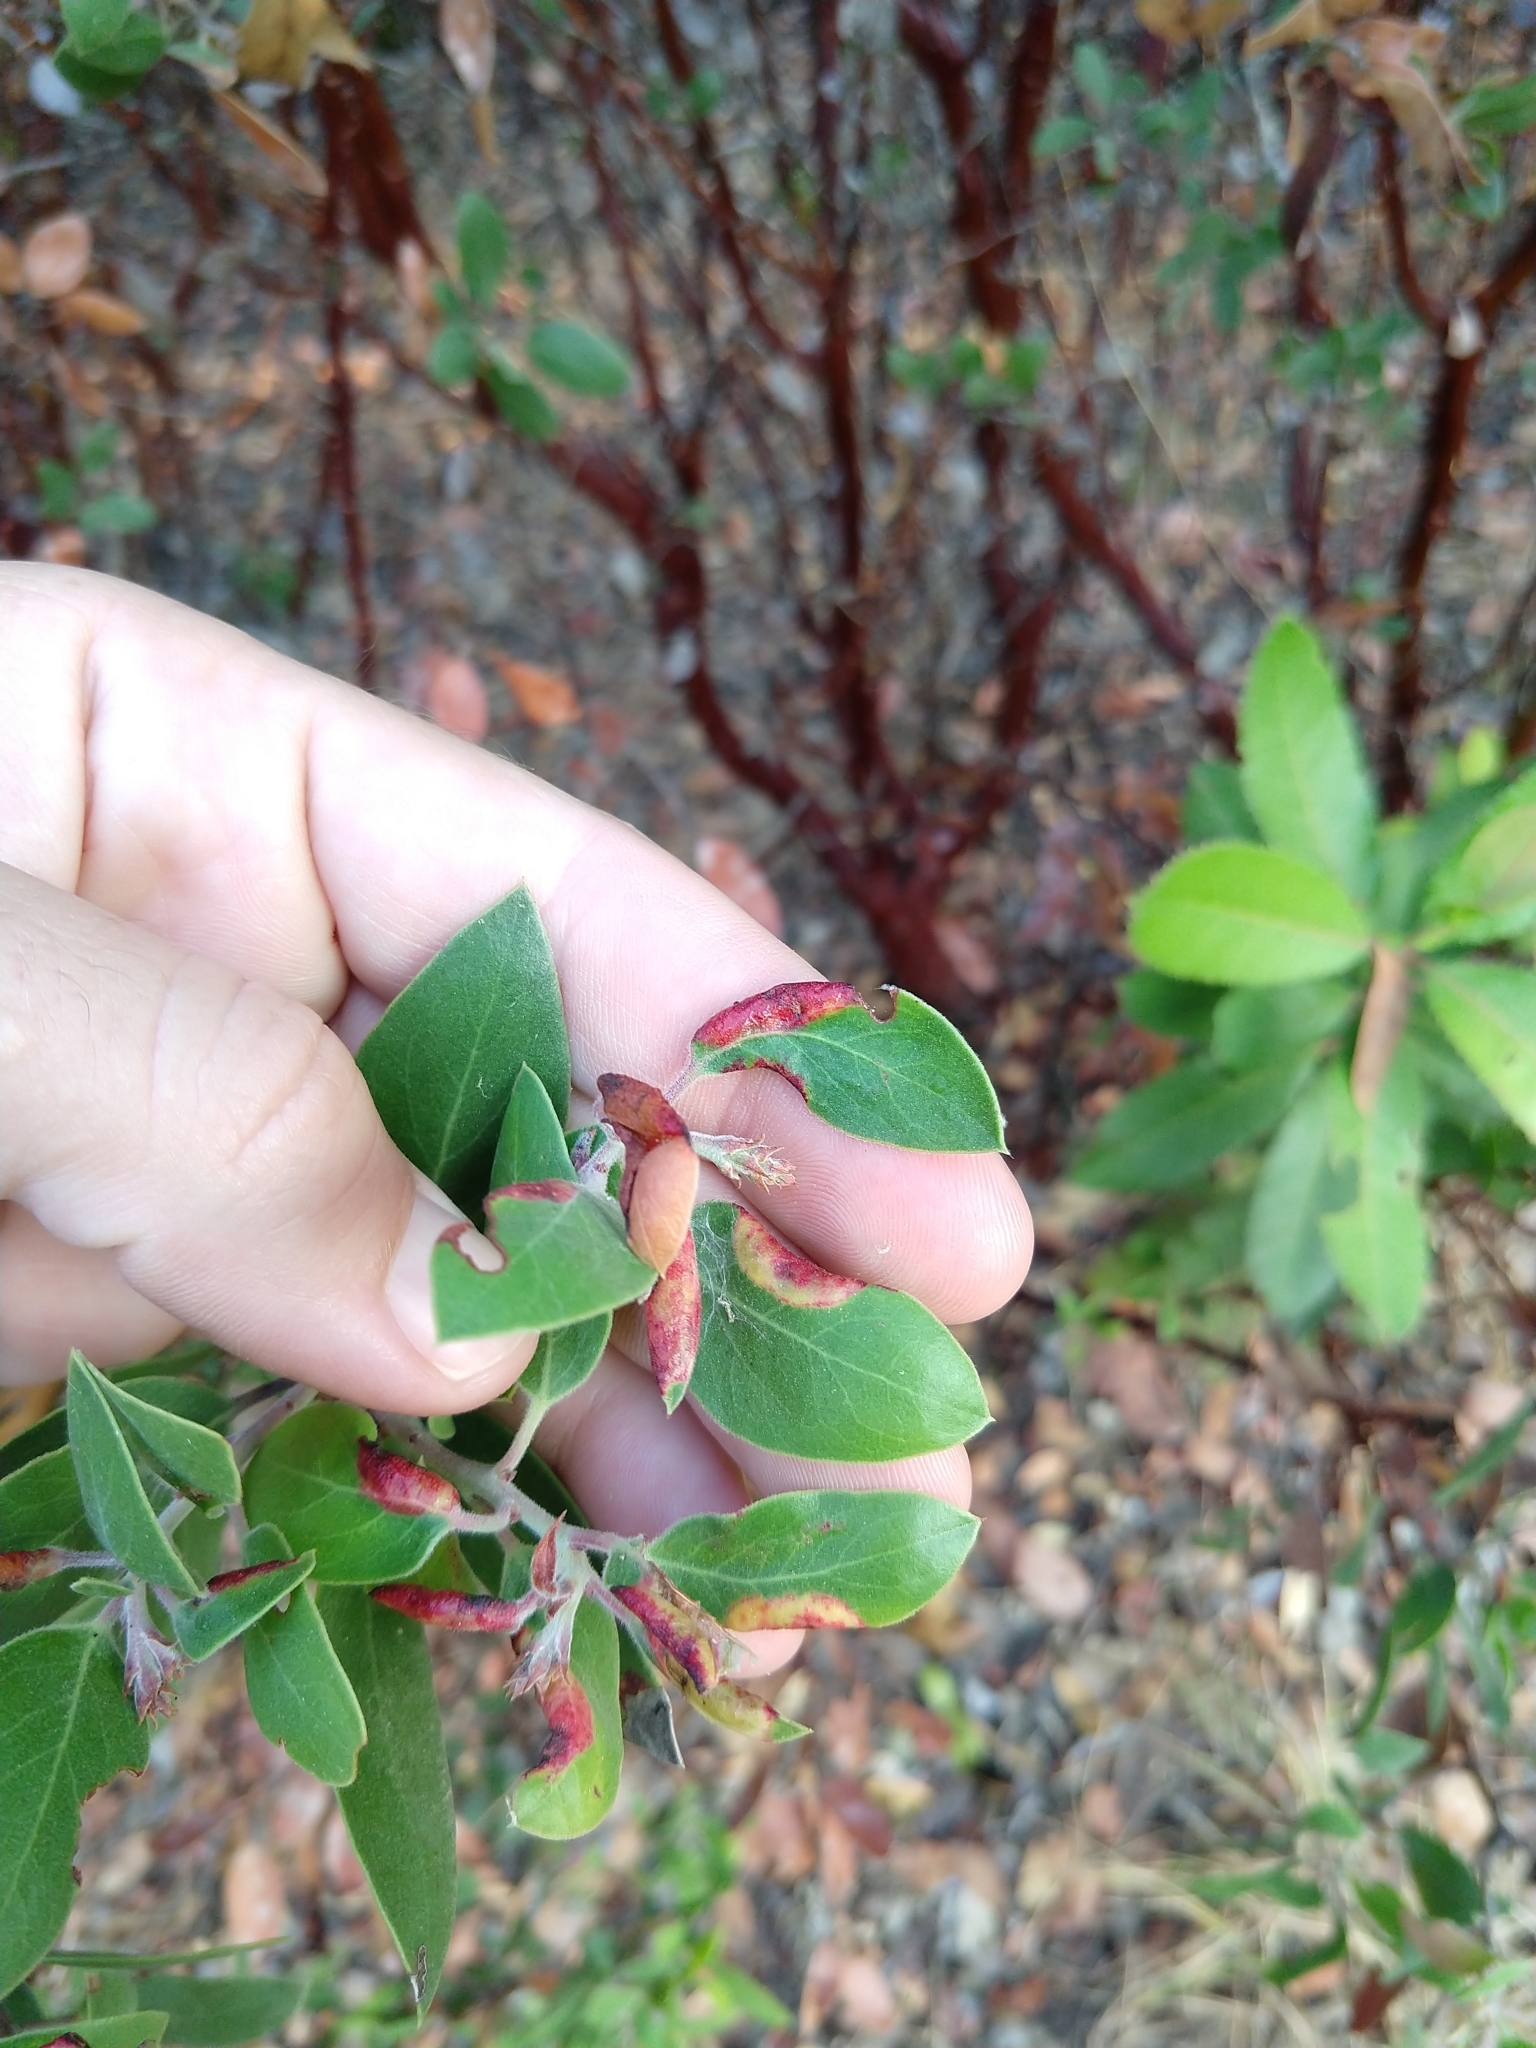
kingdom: Animalia
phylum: Arthropoda
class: Insecta
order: Hemiptera
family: Aphididae
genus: Tamalia
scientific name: Tamalia coweni
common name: Manzanita leafgall aphid
